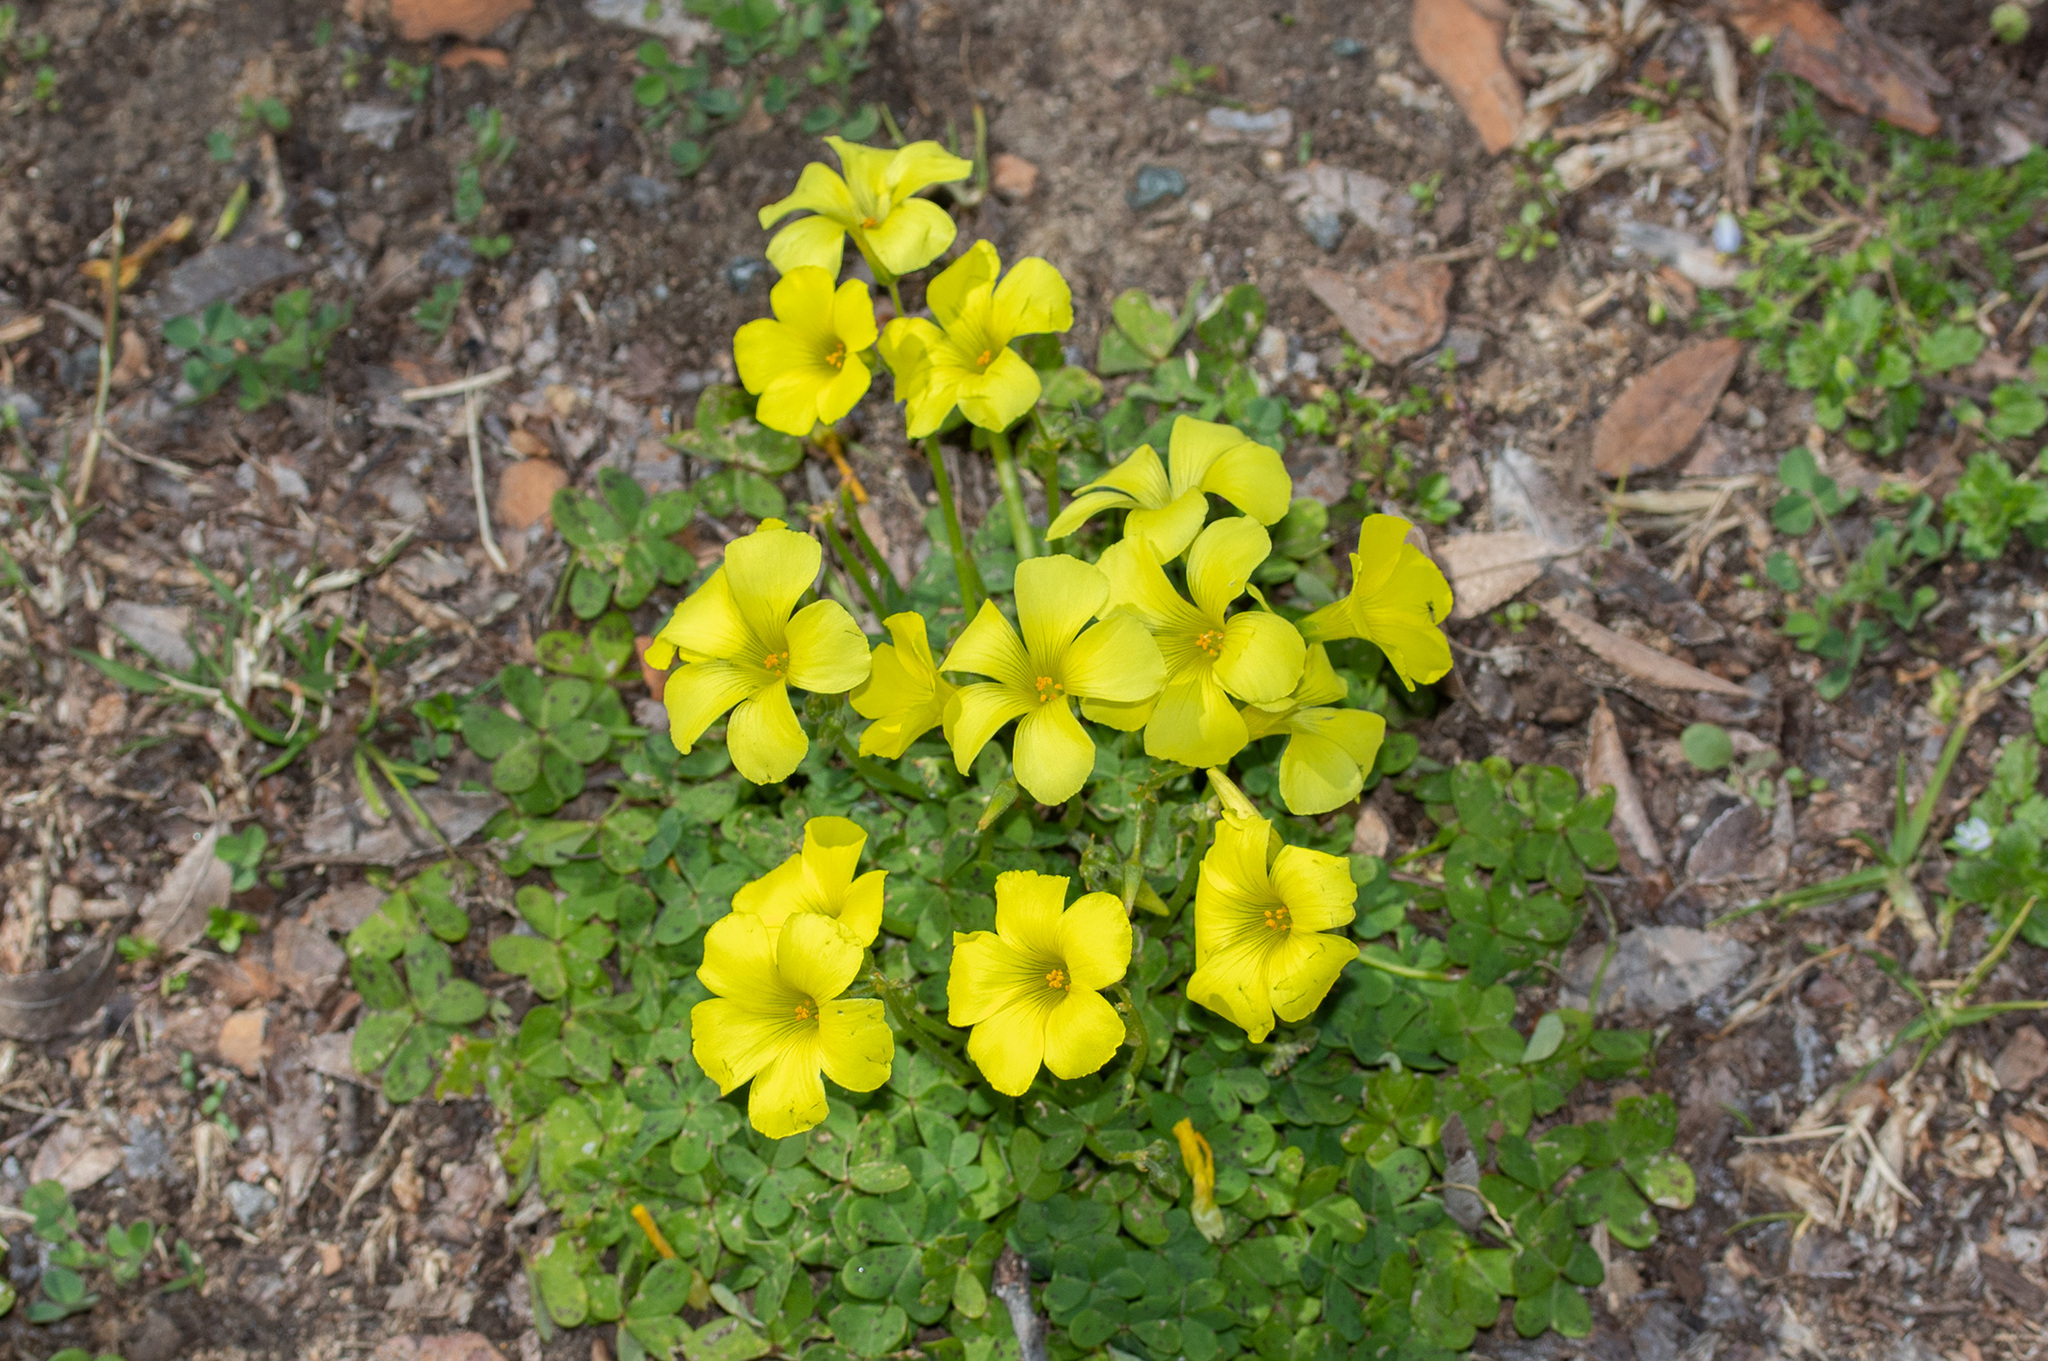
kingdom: Plantae
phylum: Tracheophyta
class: Magnoliopsida
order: Oxalidales
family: Oxalidaceae
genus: Oxalis
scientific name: Oxalis pes-caprae
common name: Bermuda-buttercup
